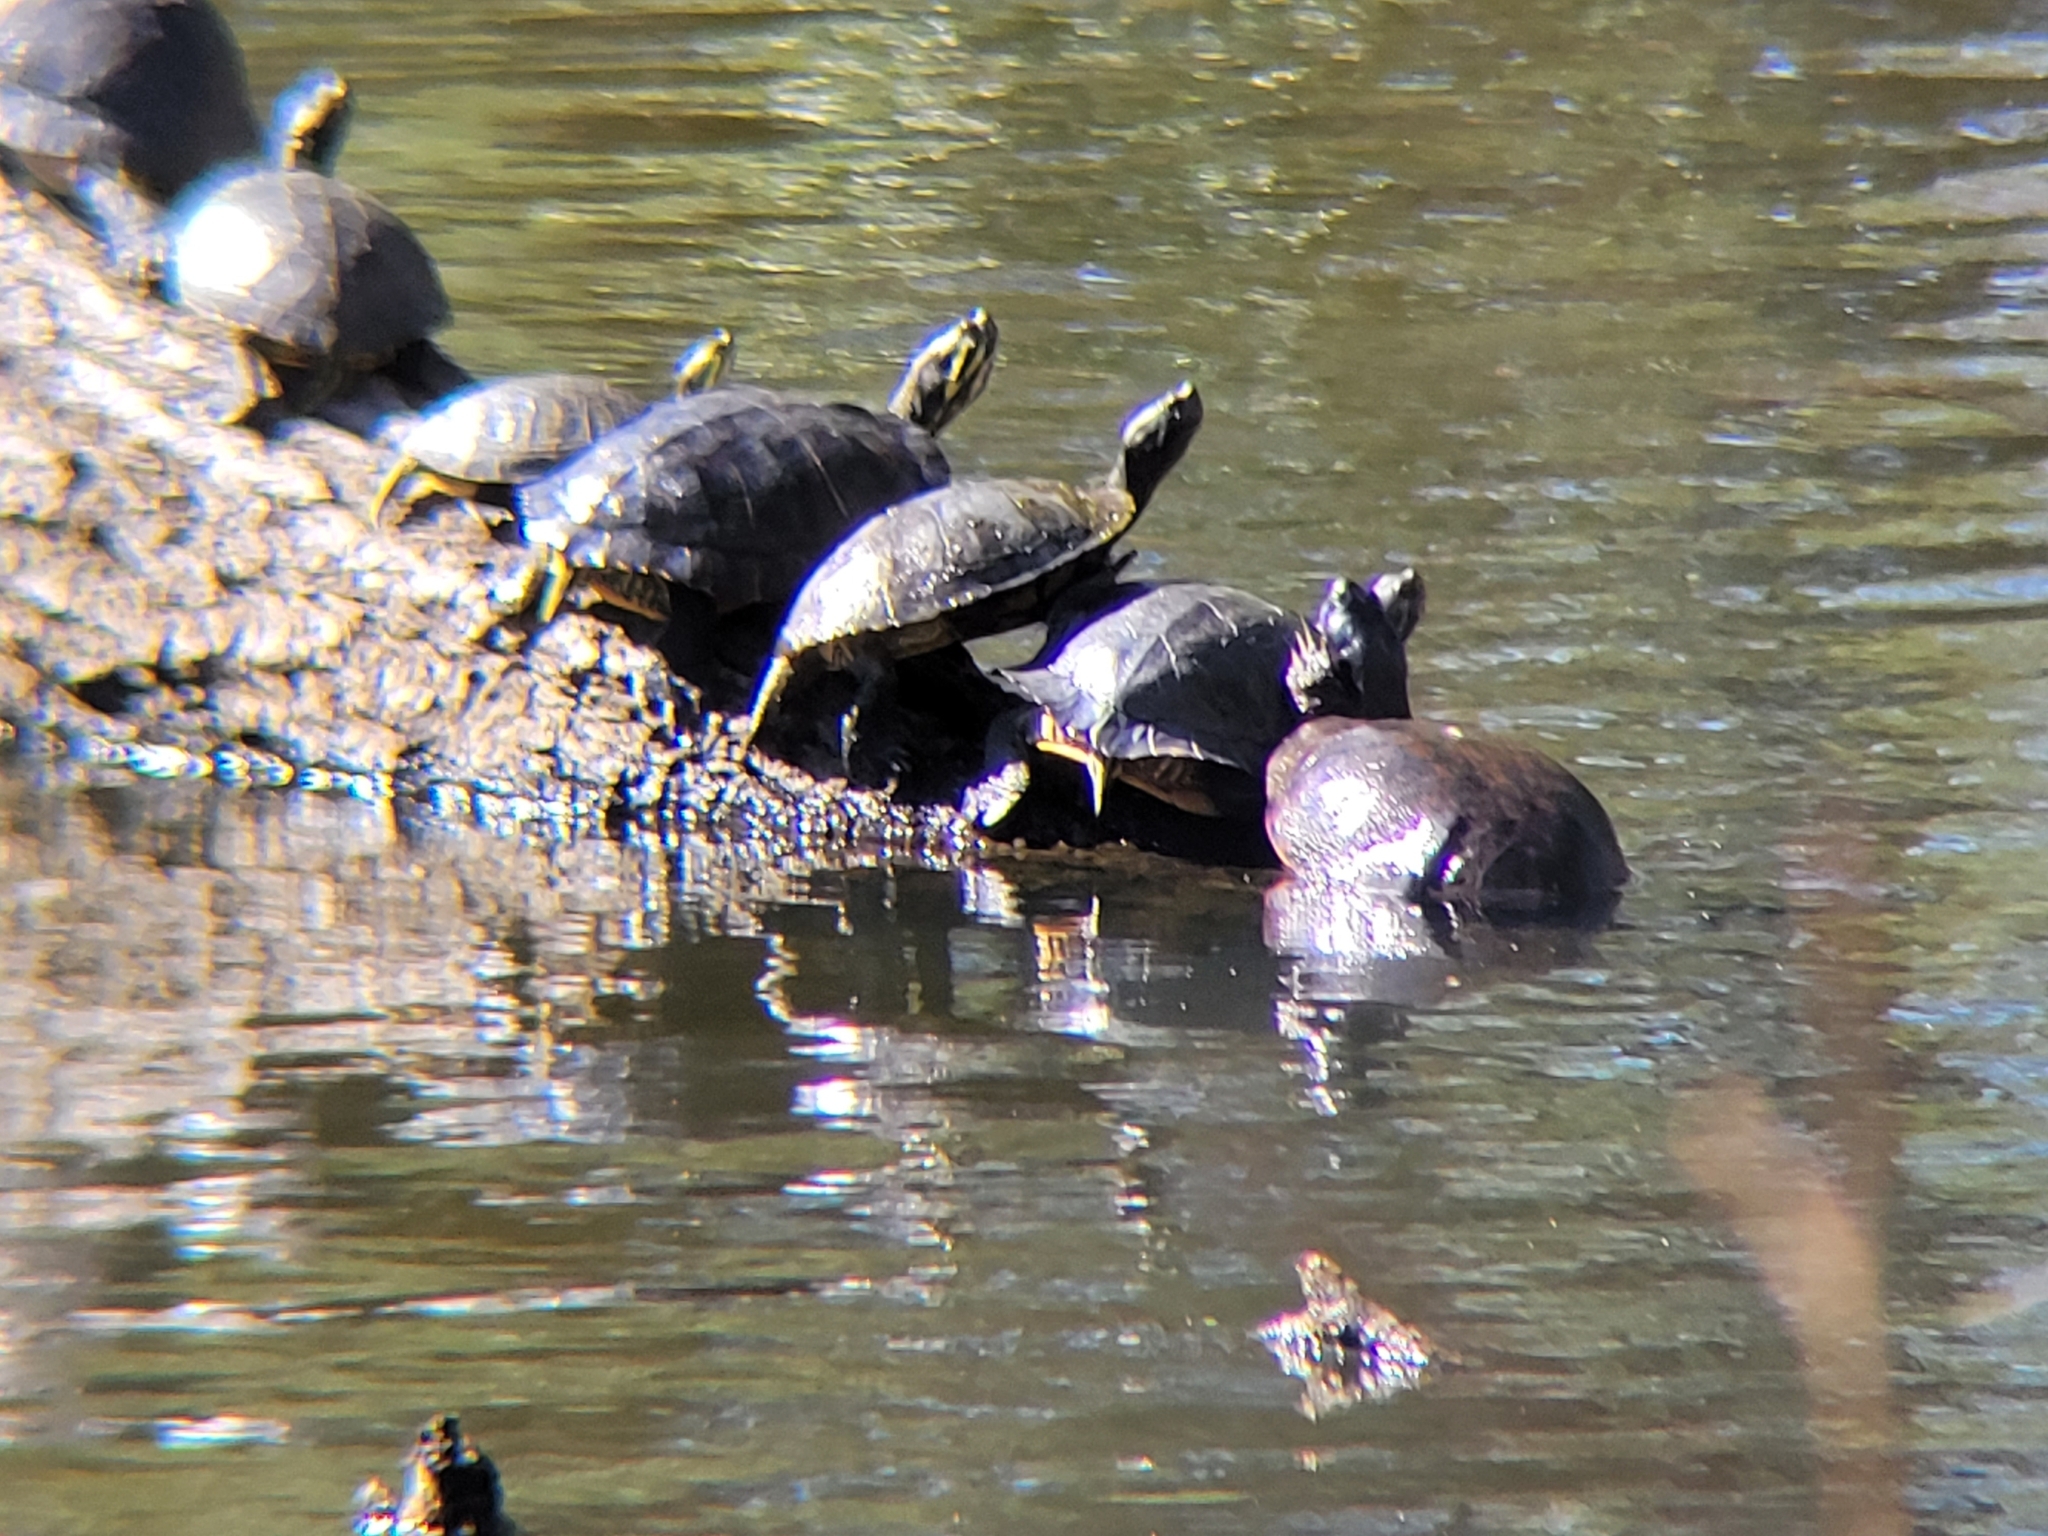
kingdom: Animalia
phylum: Chordata
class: Testudines
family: Emydidae
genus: Pseudemys
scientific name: Pseudemys rubriventris
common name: American red-bellied turtle
